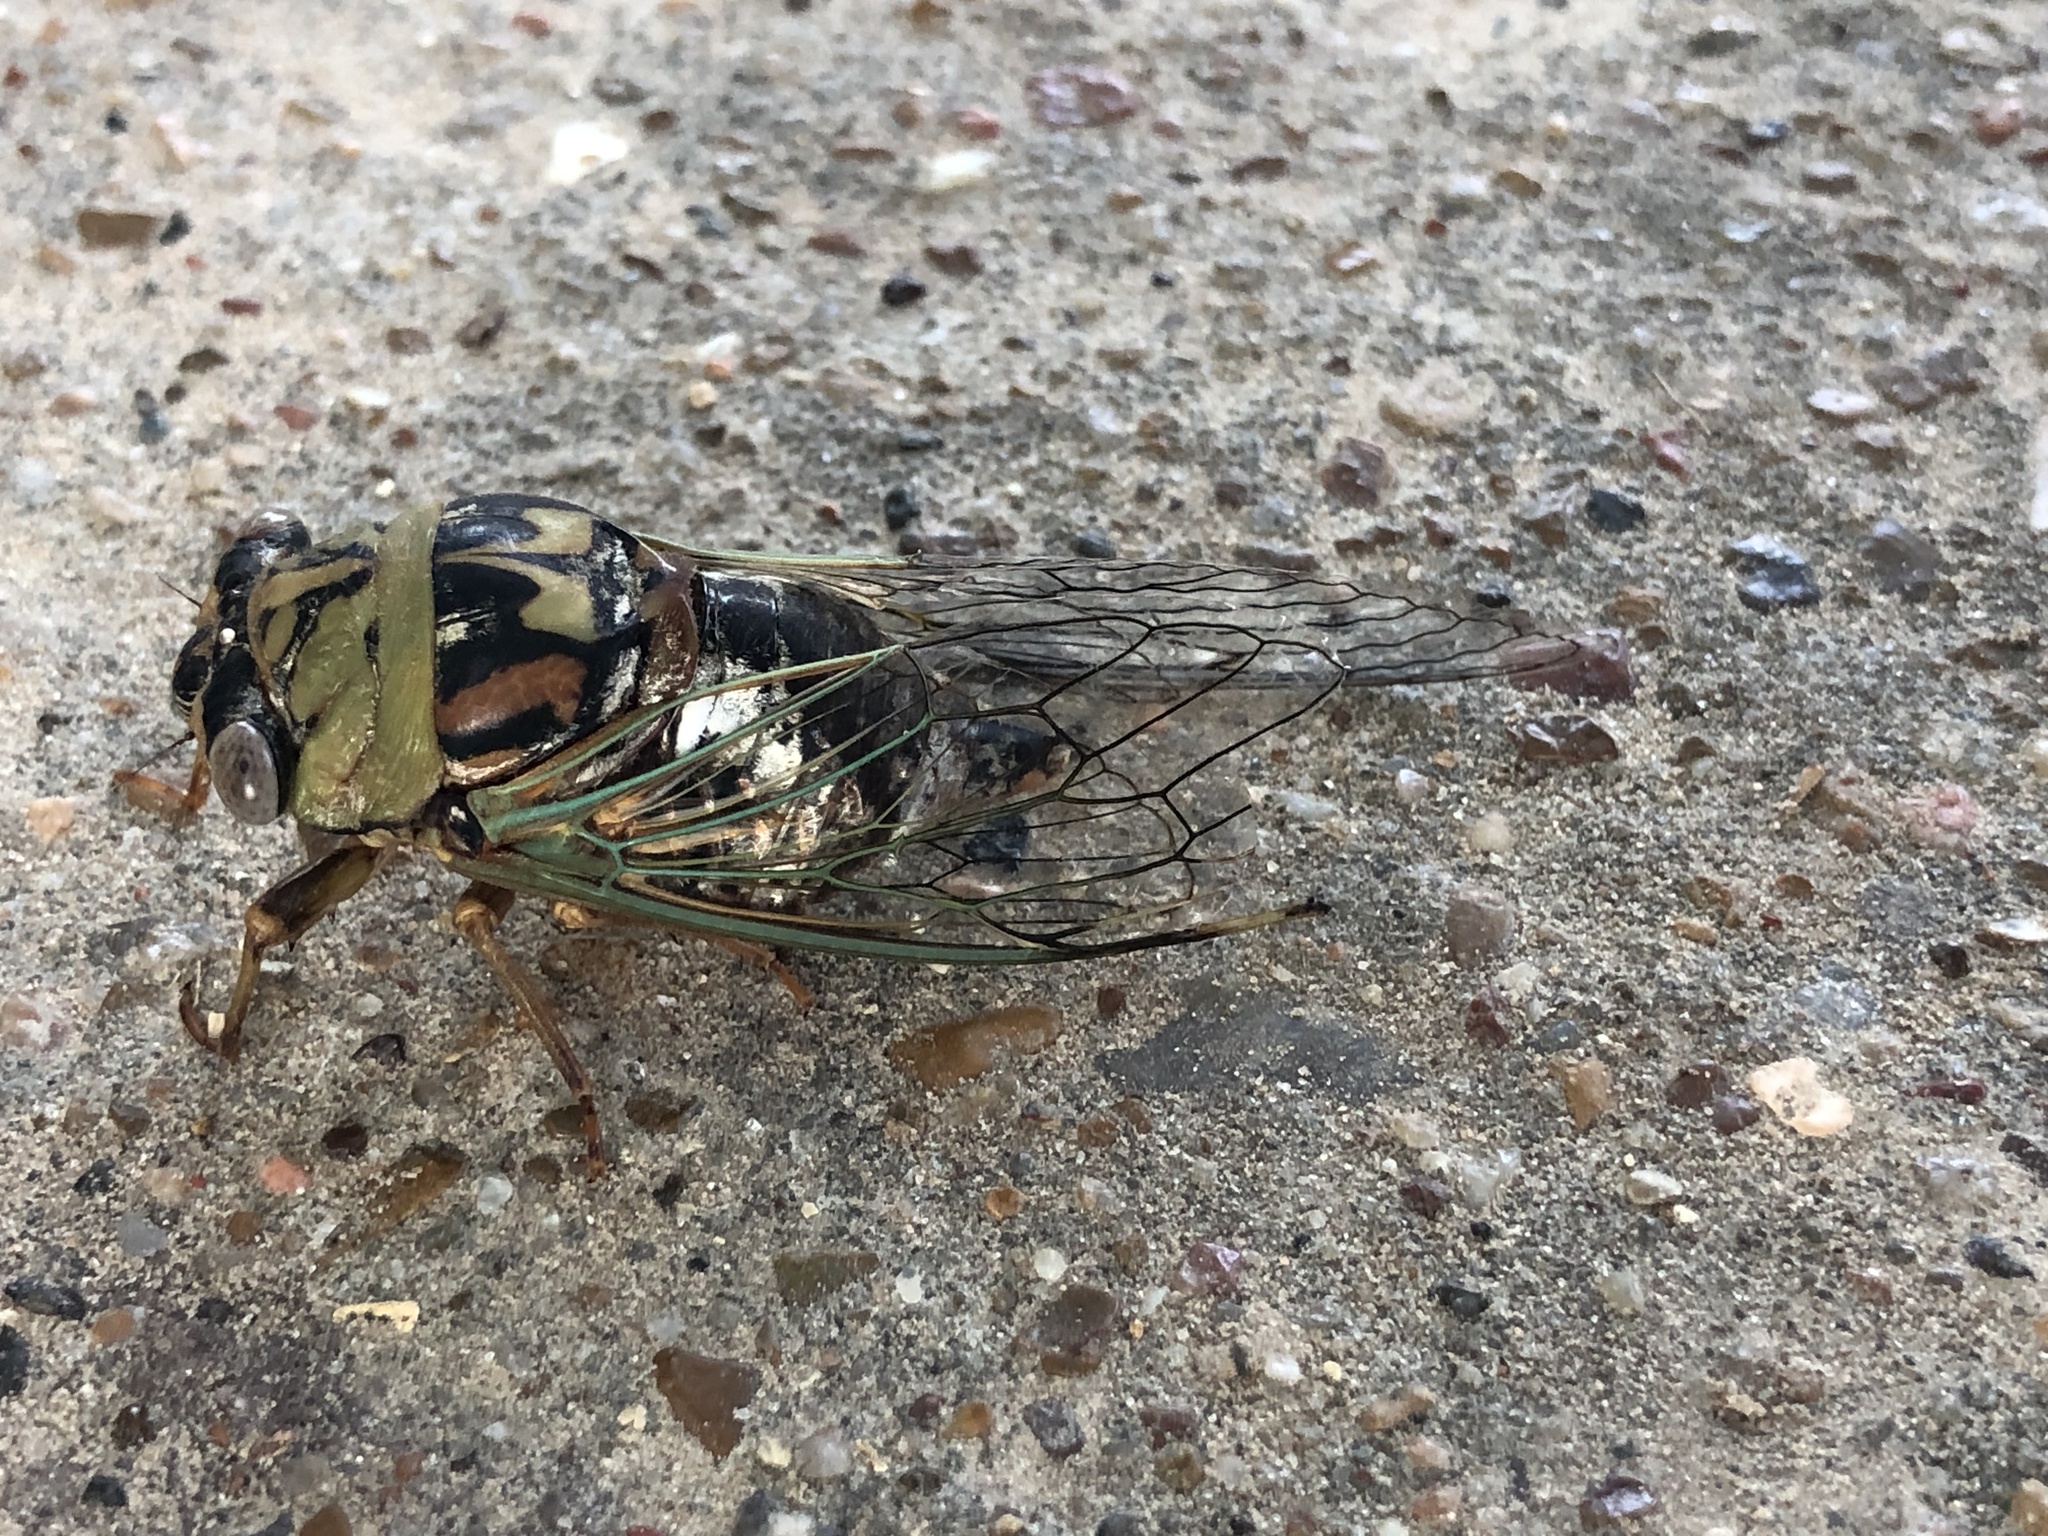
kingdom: Animalia
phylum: Arthropoda
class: Insecta
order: Hemiptera
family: Cicadidae
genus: Megatibicen
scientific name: Megatibicen resh
